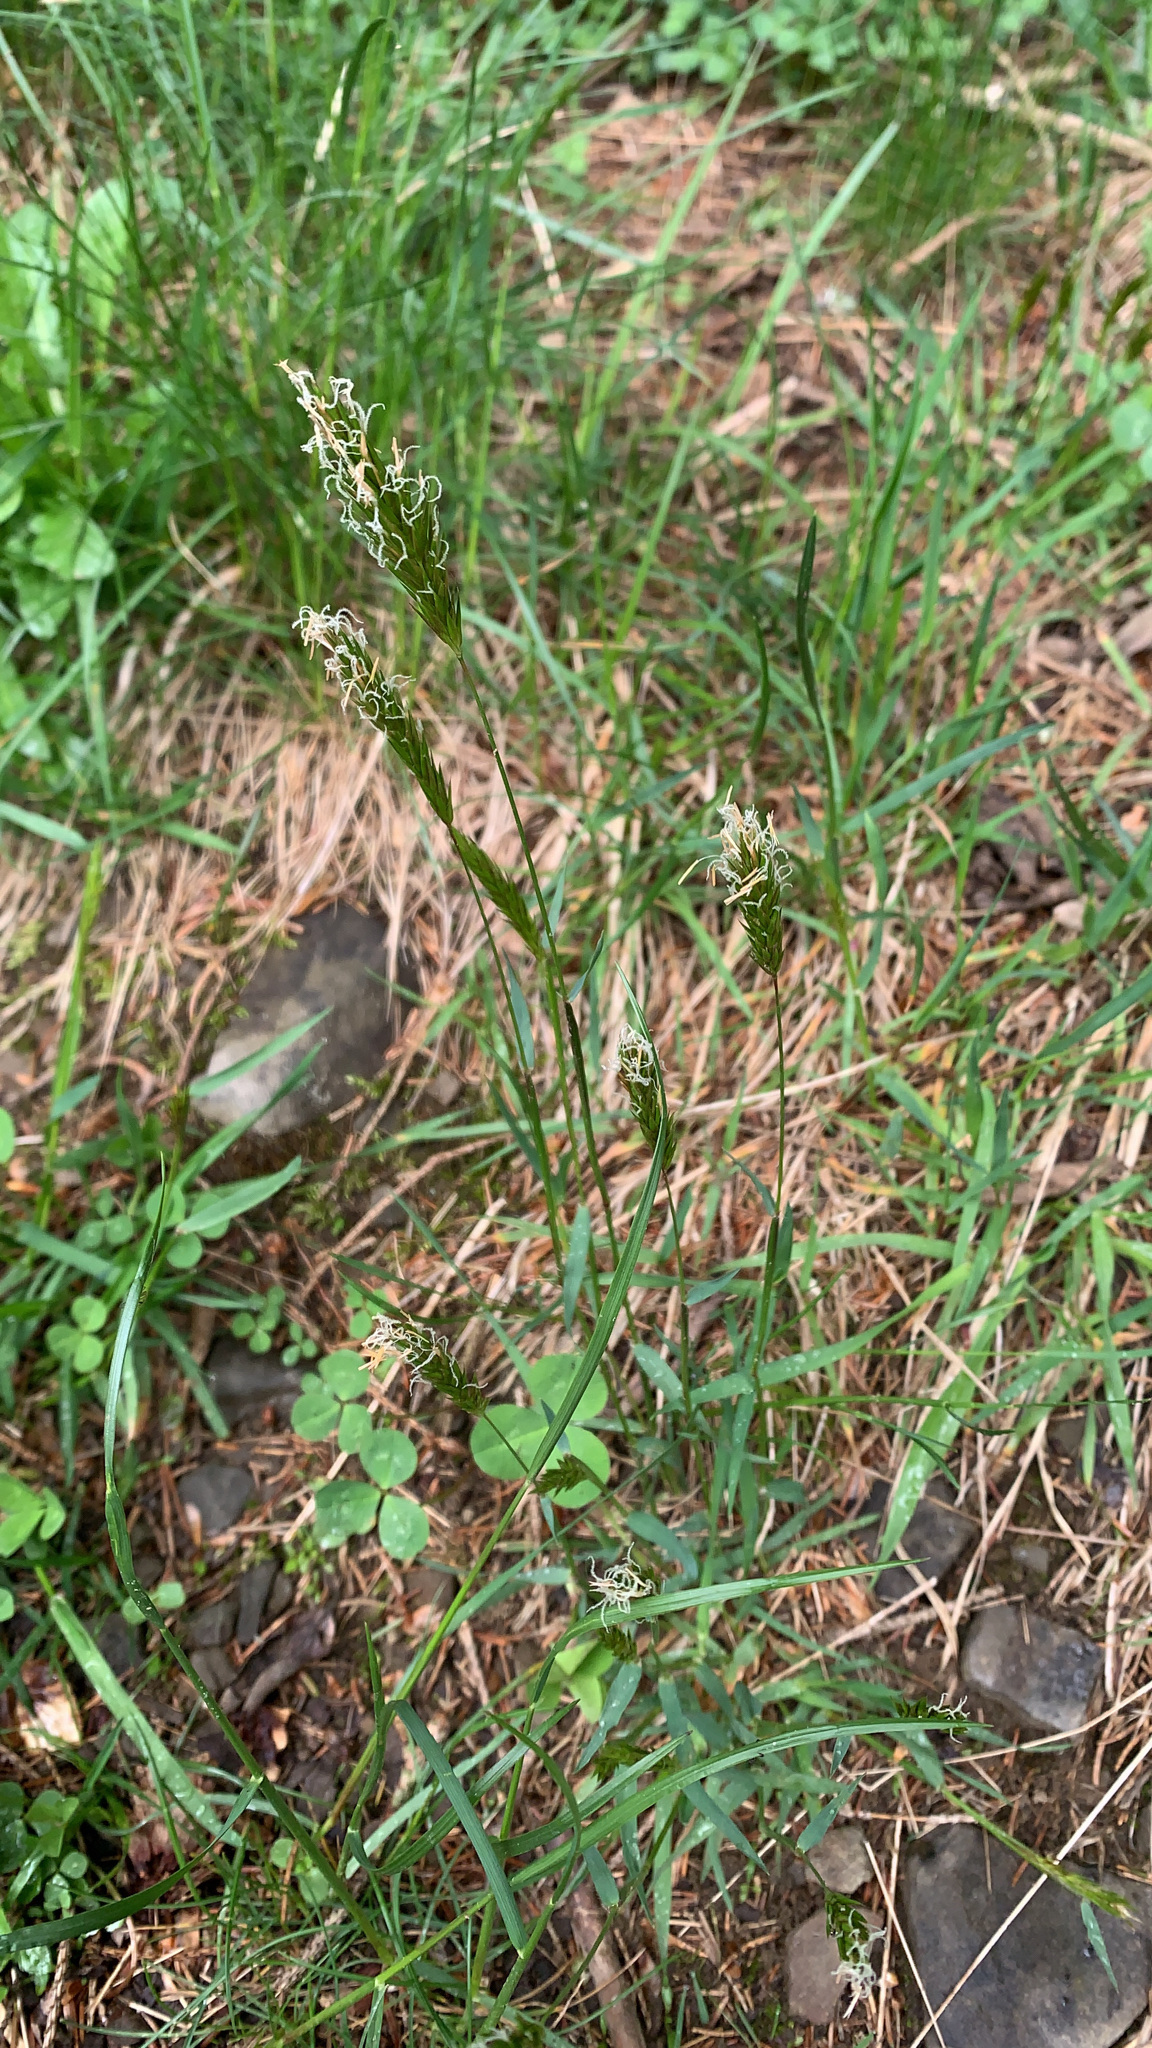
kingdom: Plantae
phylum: Tracheophyta
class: Liliopsida
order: Poales
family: Poaceae
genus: Anthoxanthum
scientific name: Anthoxanthum odoratum
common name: Sweet vernalgrass
